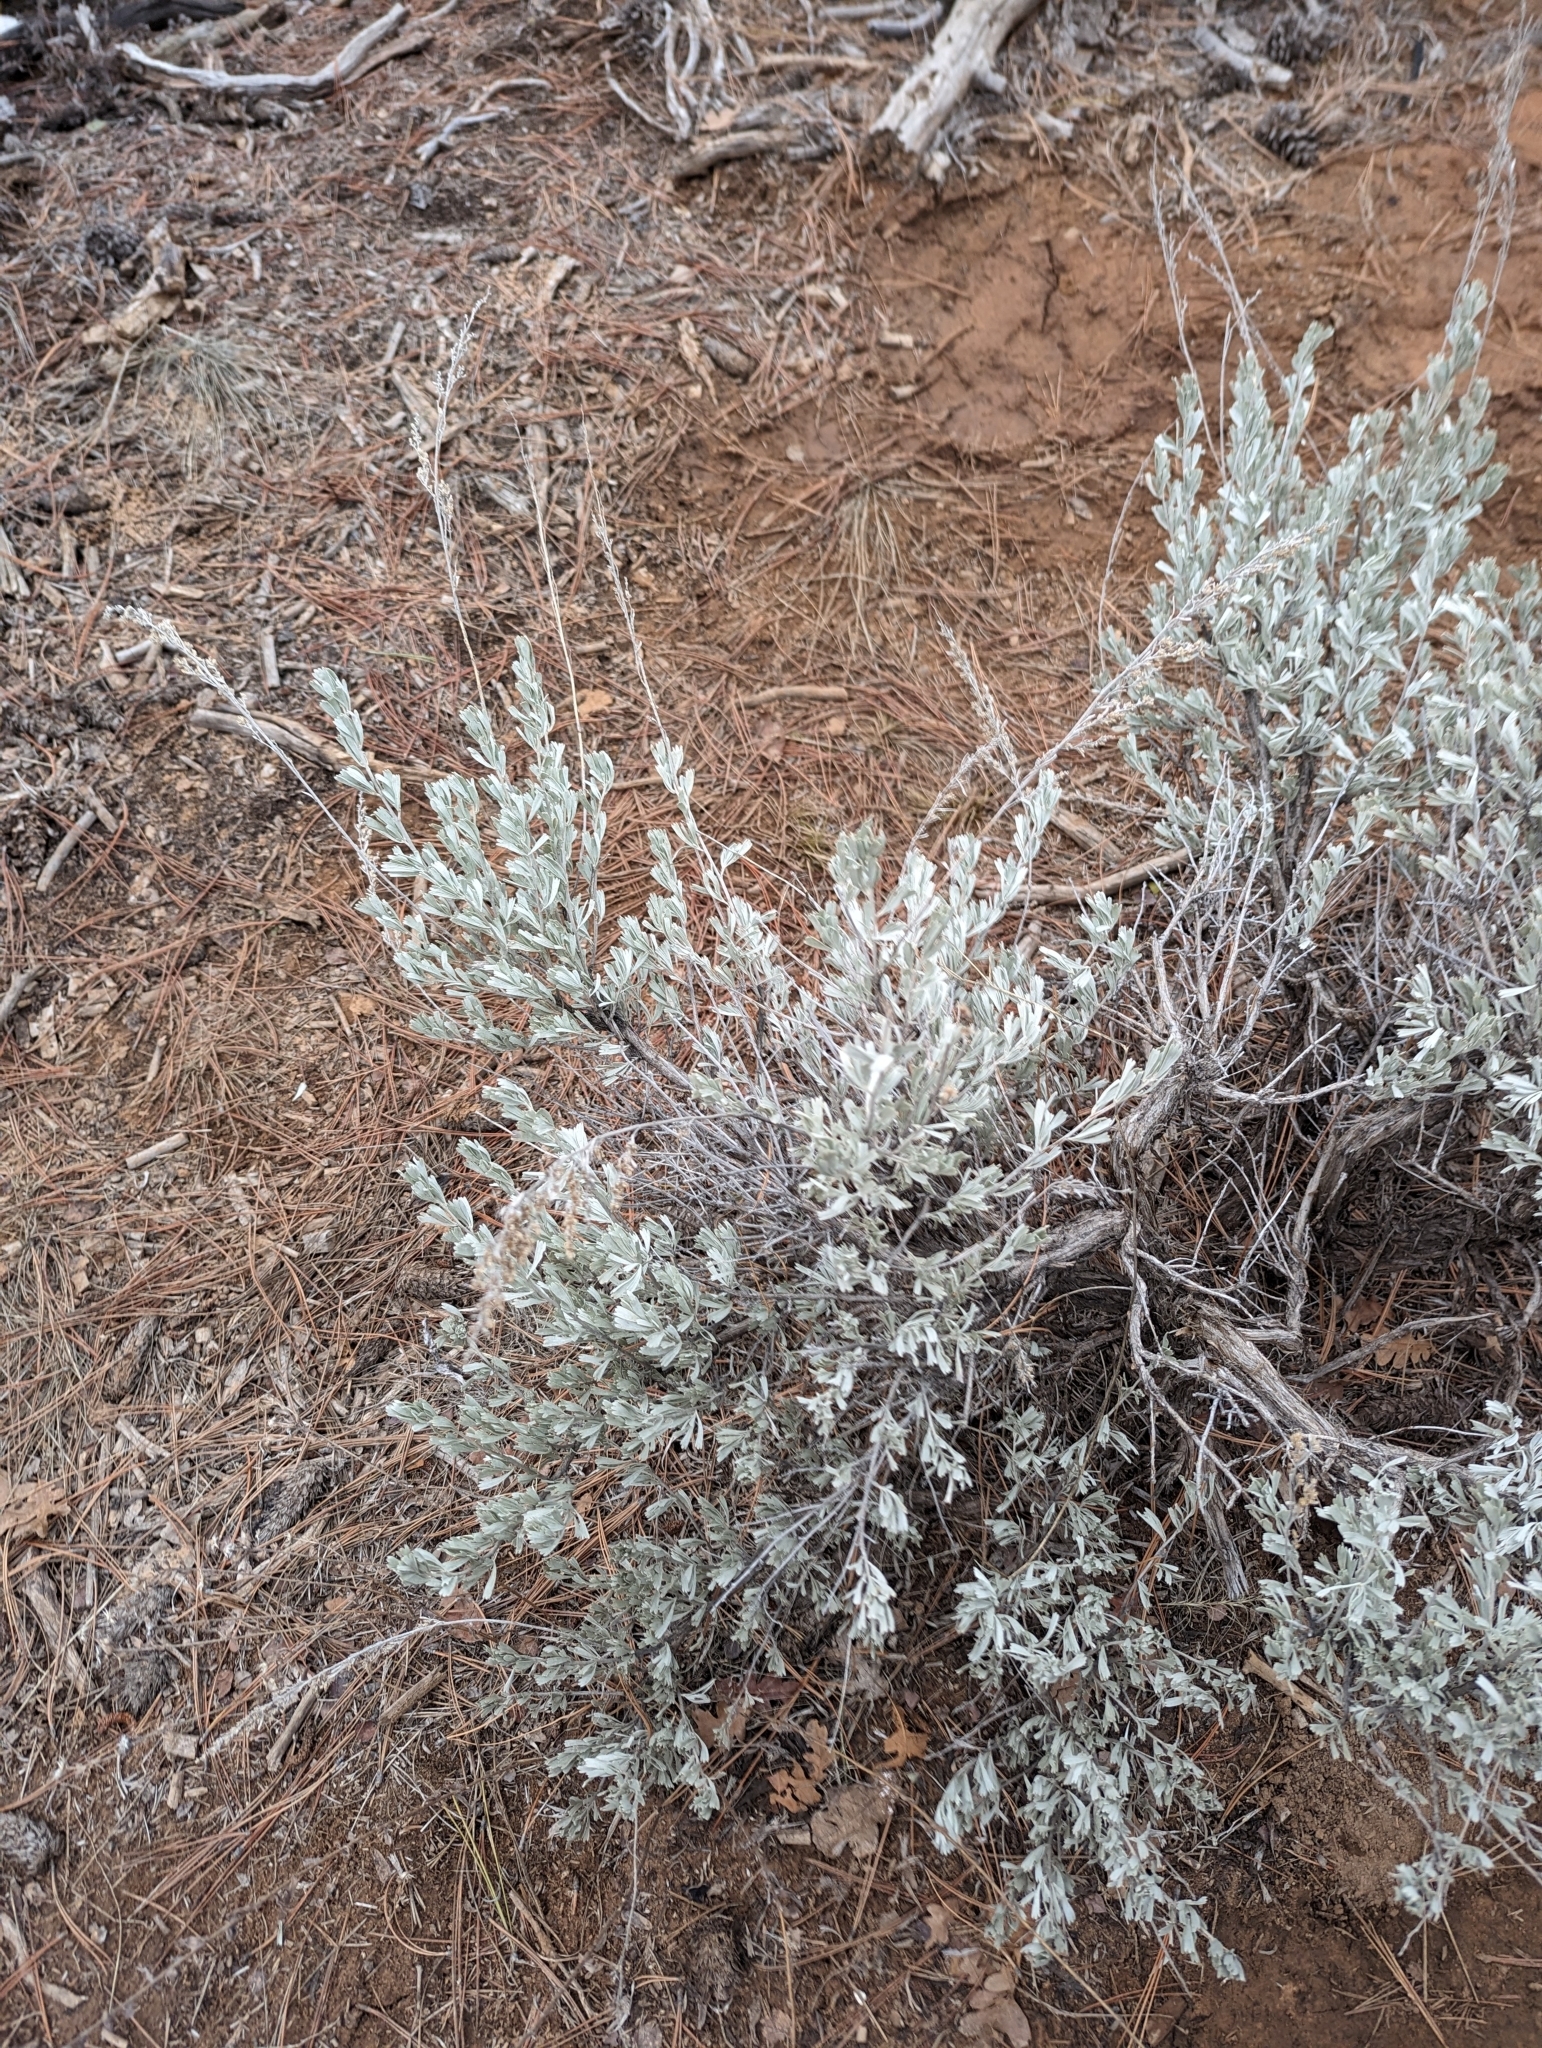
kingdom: Plantae
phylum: Tracheophyta
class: Magnoliopsida
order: Asterales
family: Asteraceae
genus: Artemisia
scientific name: Artemisia tridentata
